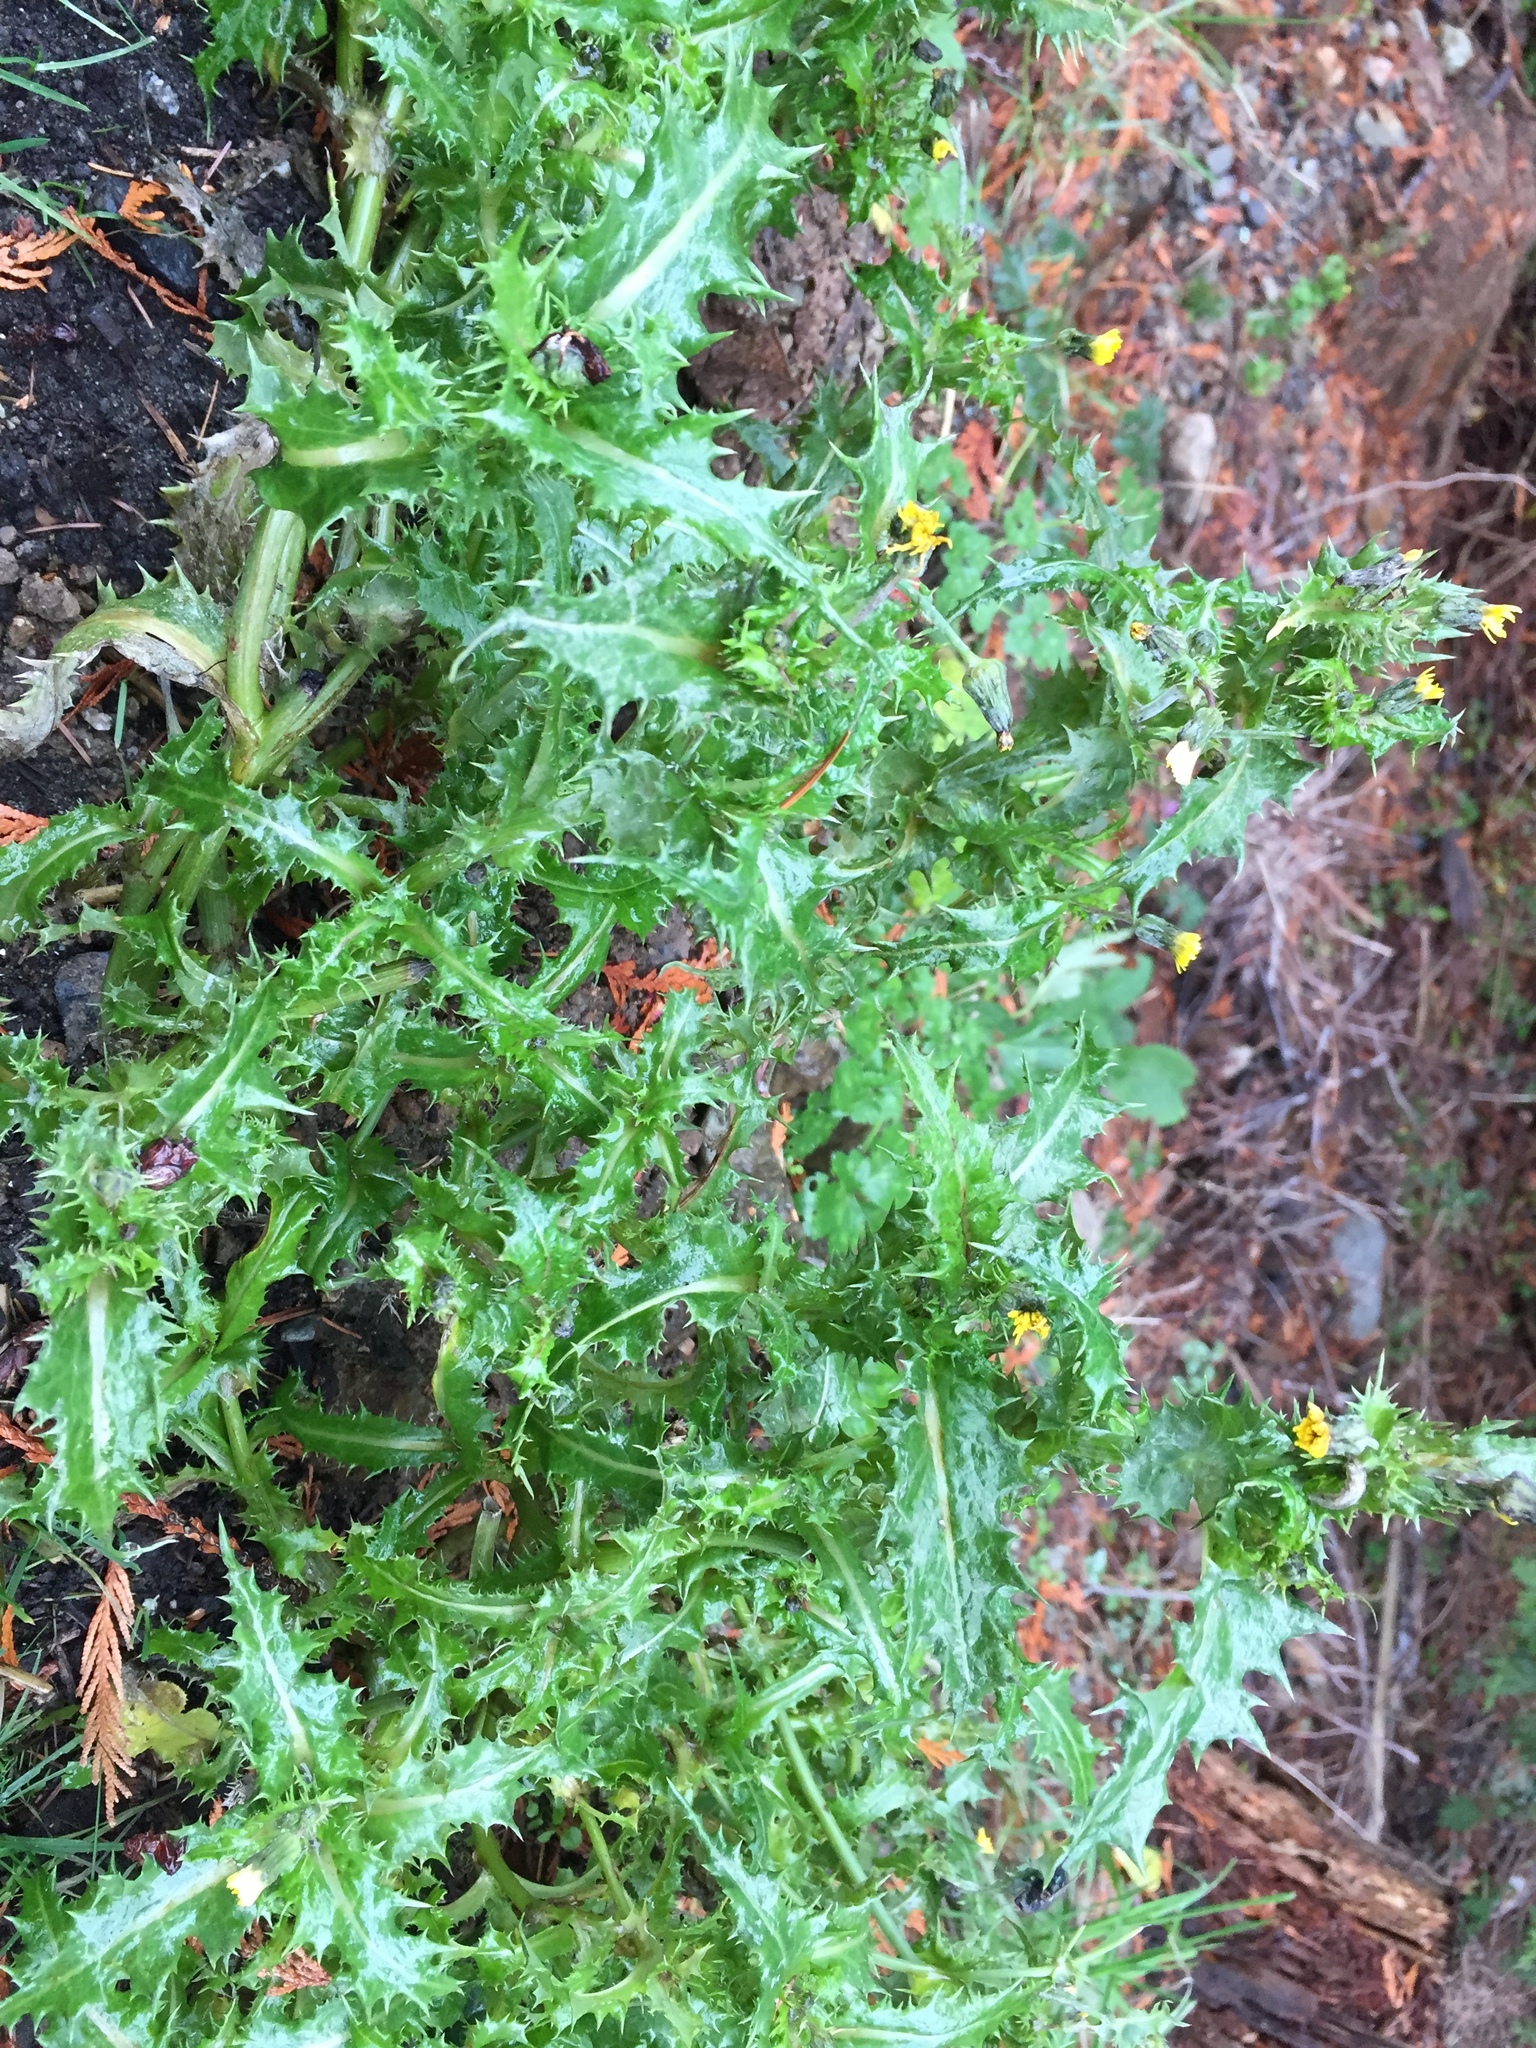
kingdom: Plantae
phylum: Tracheophyta
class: Magnoliopsida
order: Asterales
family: Asteraceae
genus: Sonchus
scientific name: Sonchus asper
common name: Prickly sow-thistle
